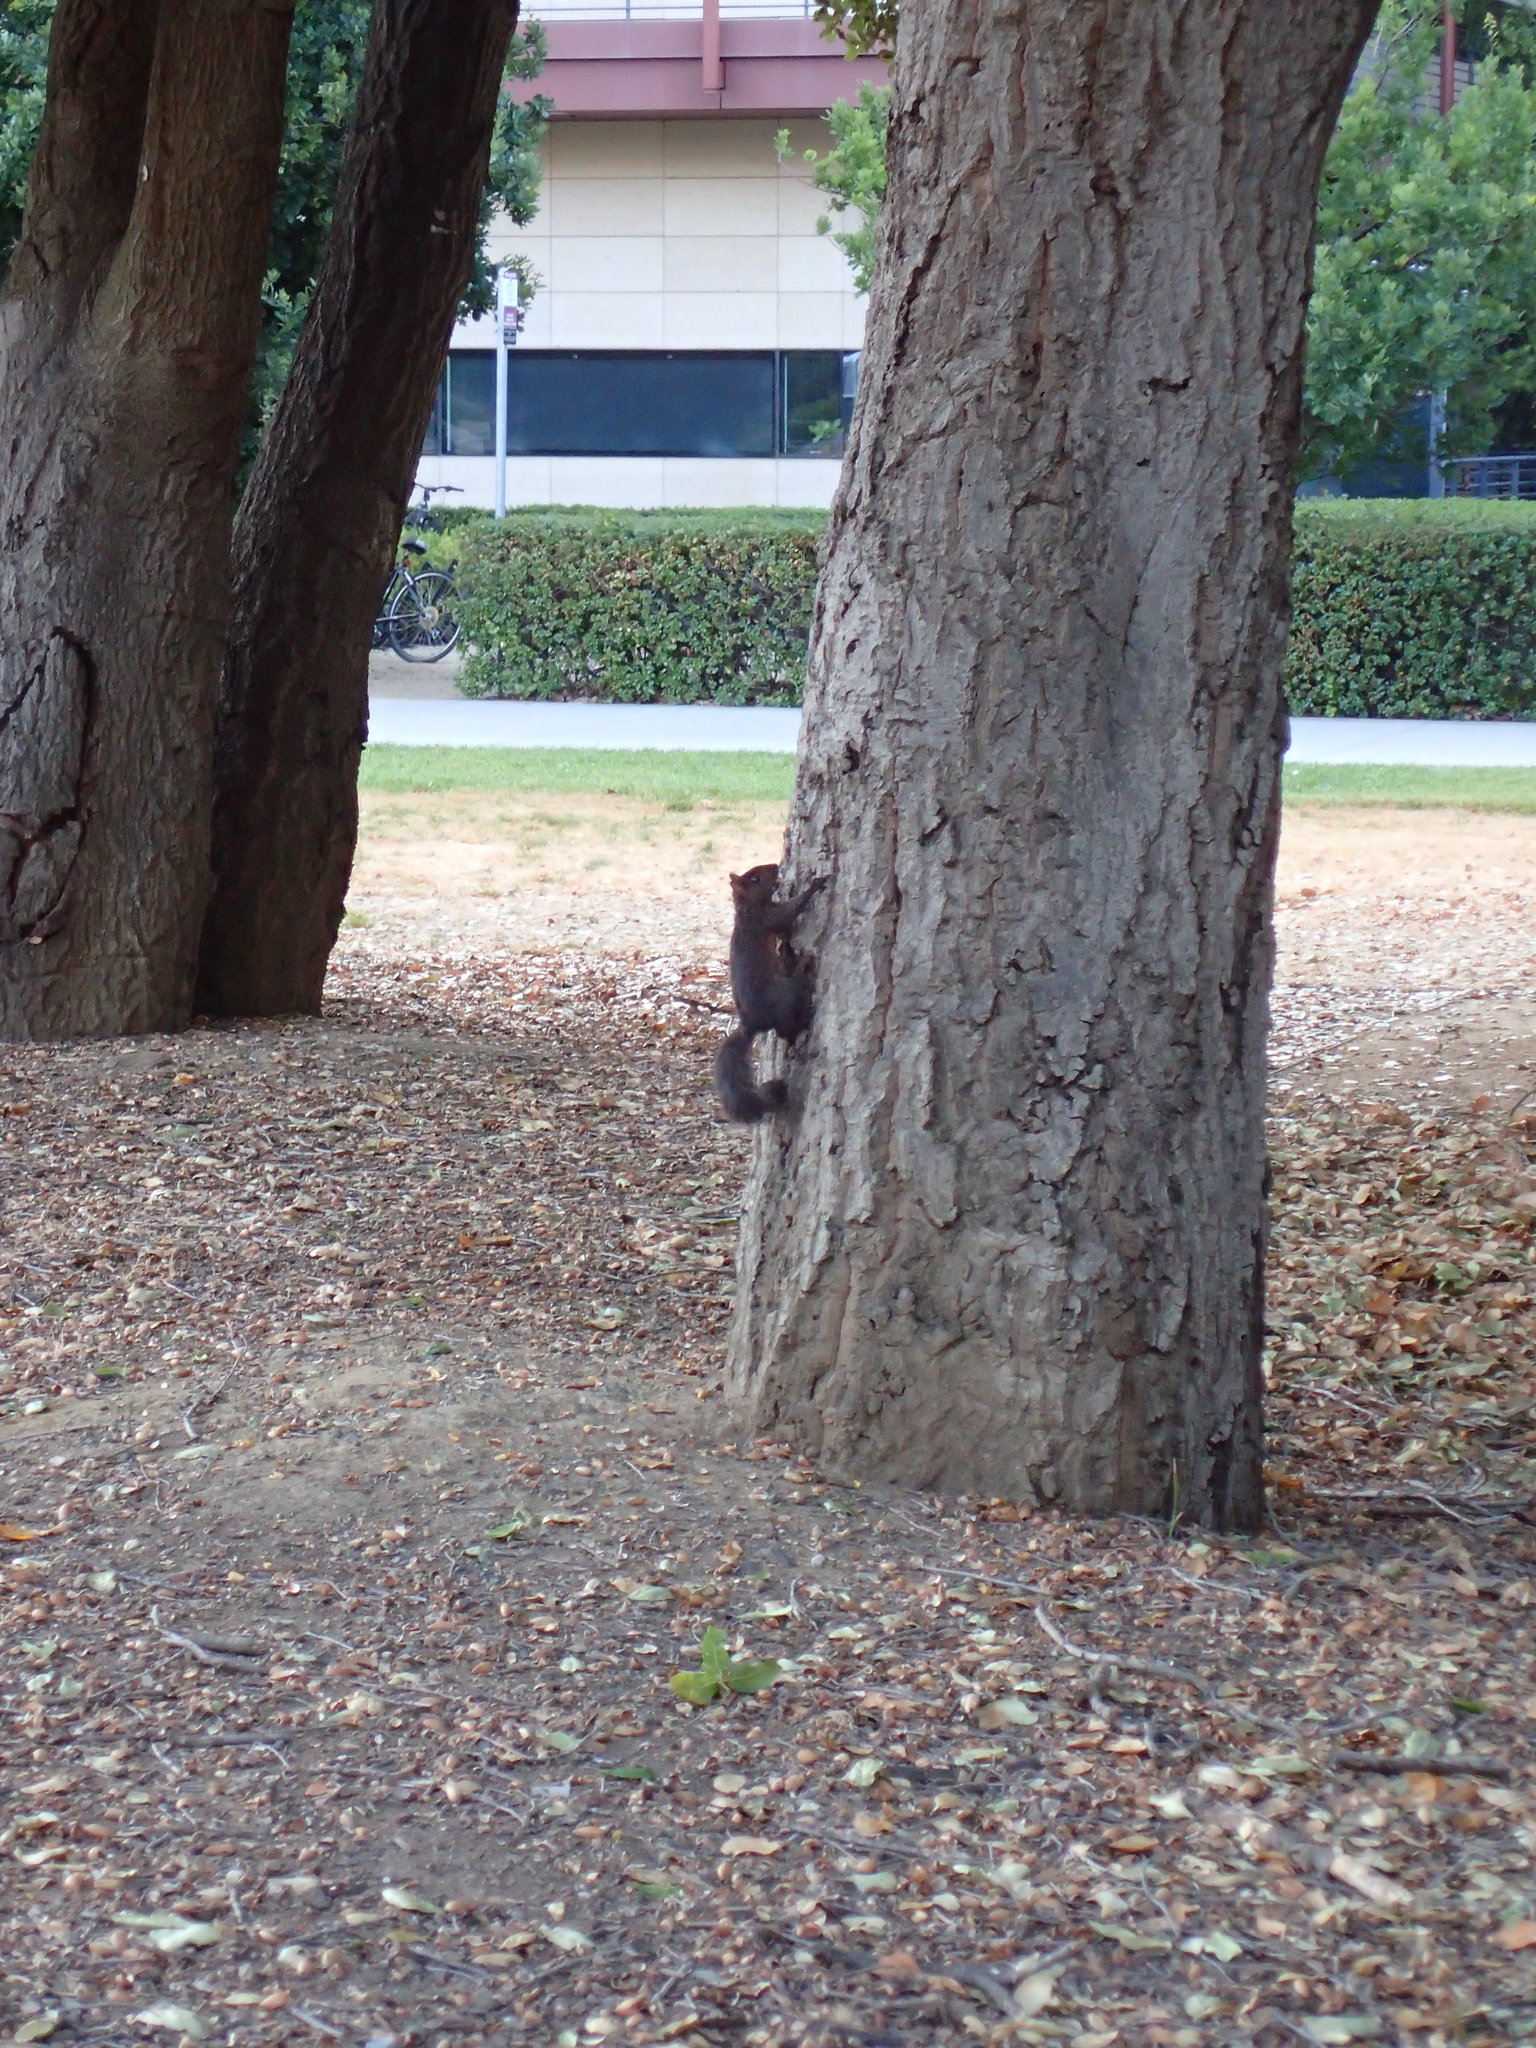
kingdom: Animalia
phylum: Chordata
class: Mammalia
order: Rodentia
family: Sciuridae
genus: Sciurus
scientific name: Sciurus carolinensis
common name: Eastern gray squirrel
